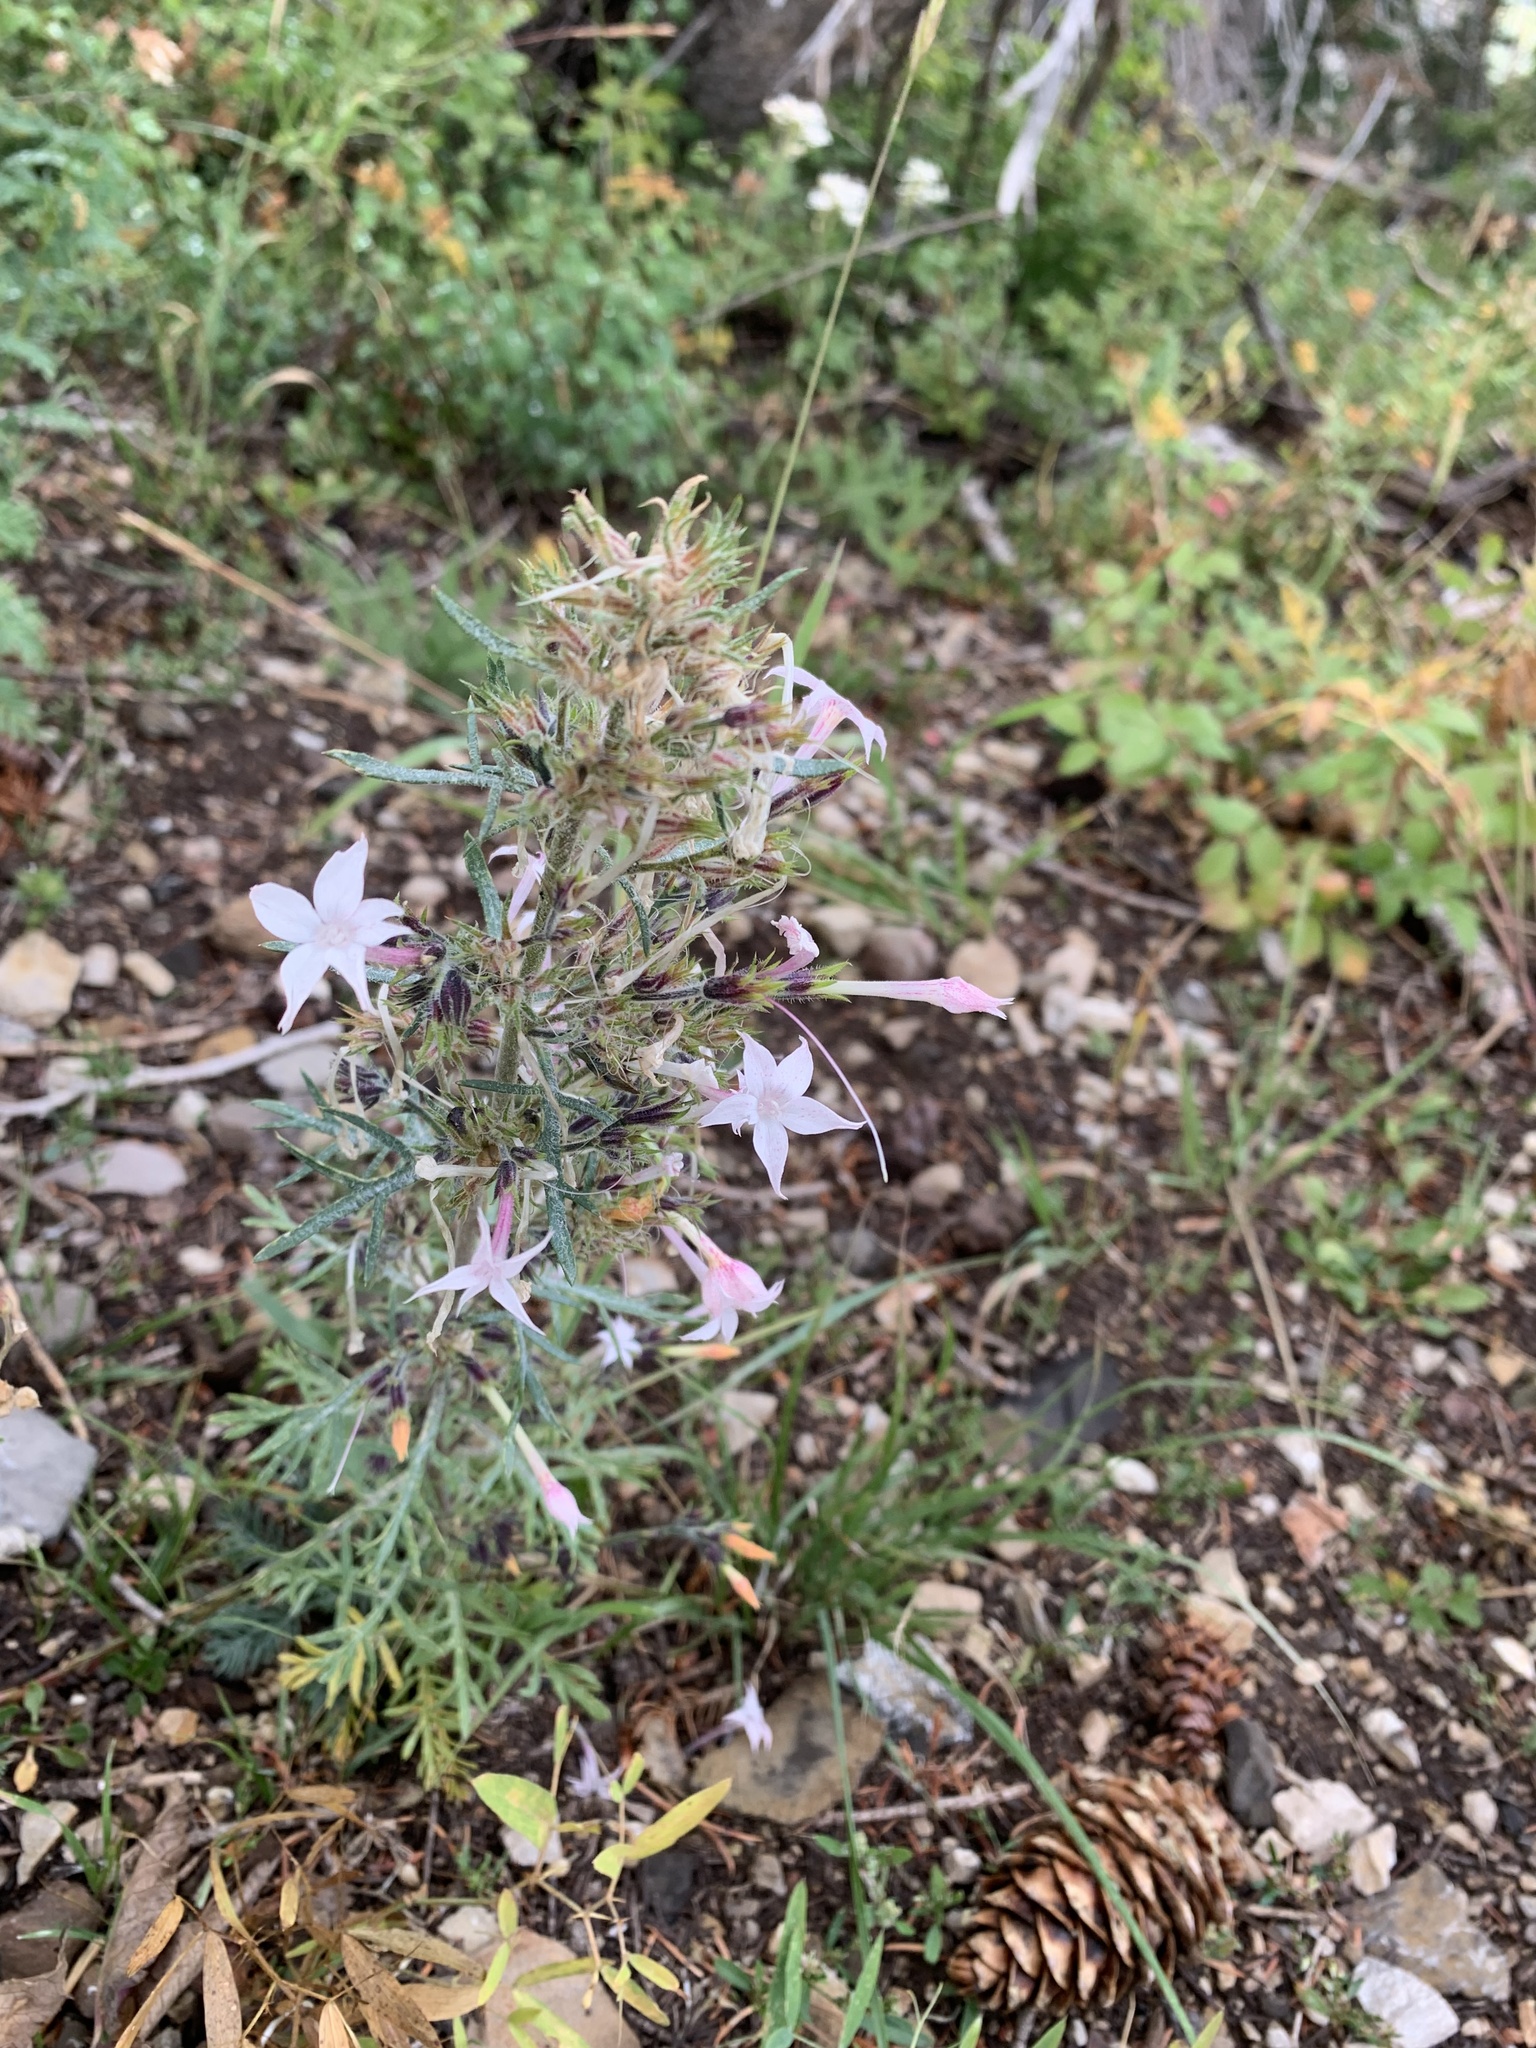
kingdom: Plantae
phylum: Tracheophyta
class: Magnoliopsida
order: Ericales
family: Polemoniaceae
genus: Ipomopsis
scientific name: Ipomopsis tenuituba
